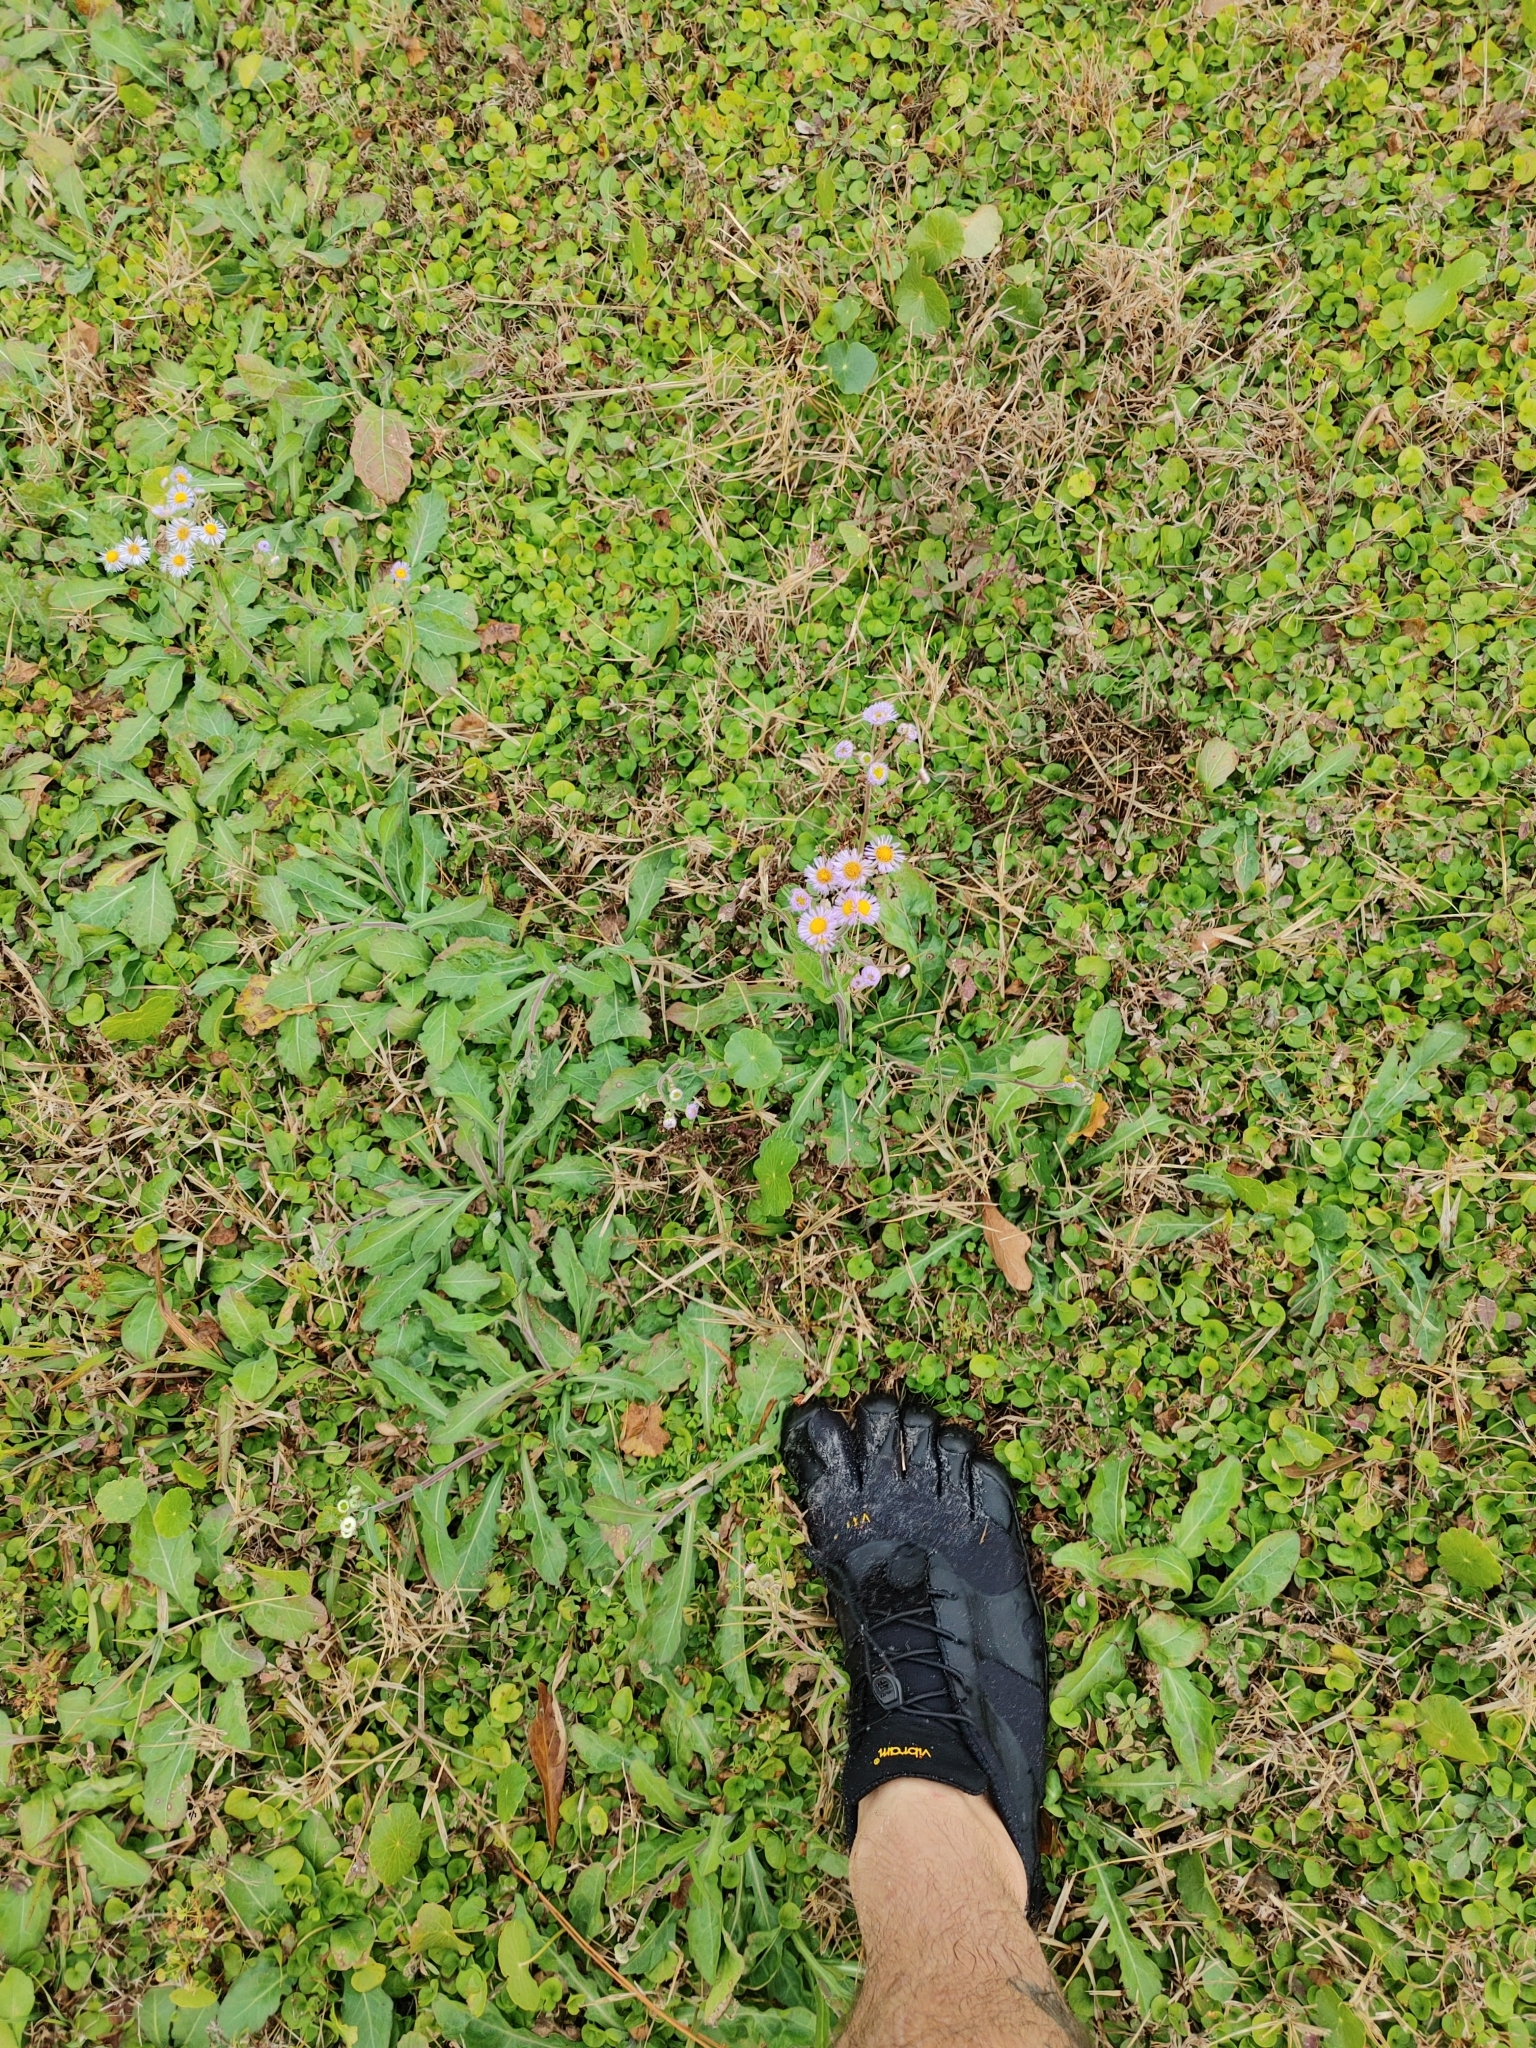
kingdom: Plantae
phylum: Tracheophyta
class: Magnoliopsida
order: Asterales
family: Asteraceae
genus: Erigeron
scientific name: Erigeron quercifolius
